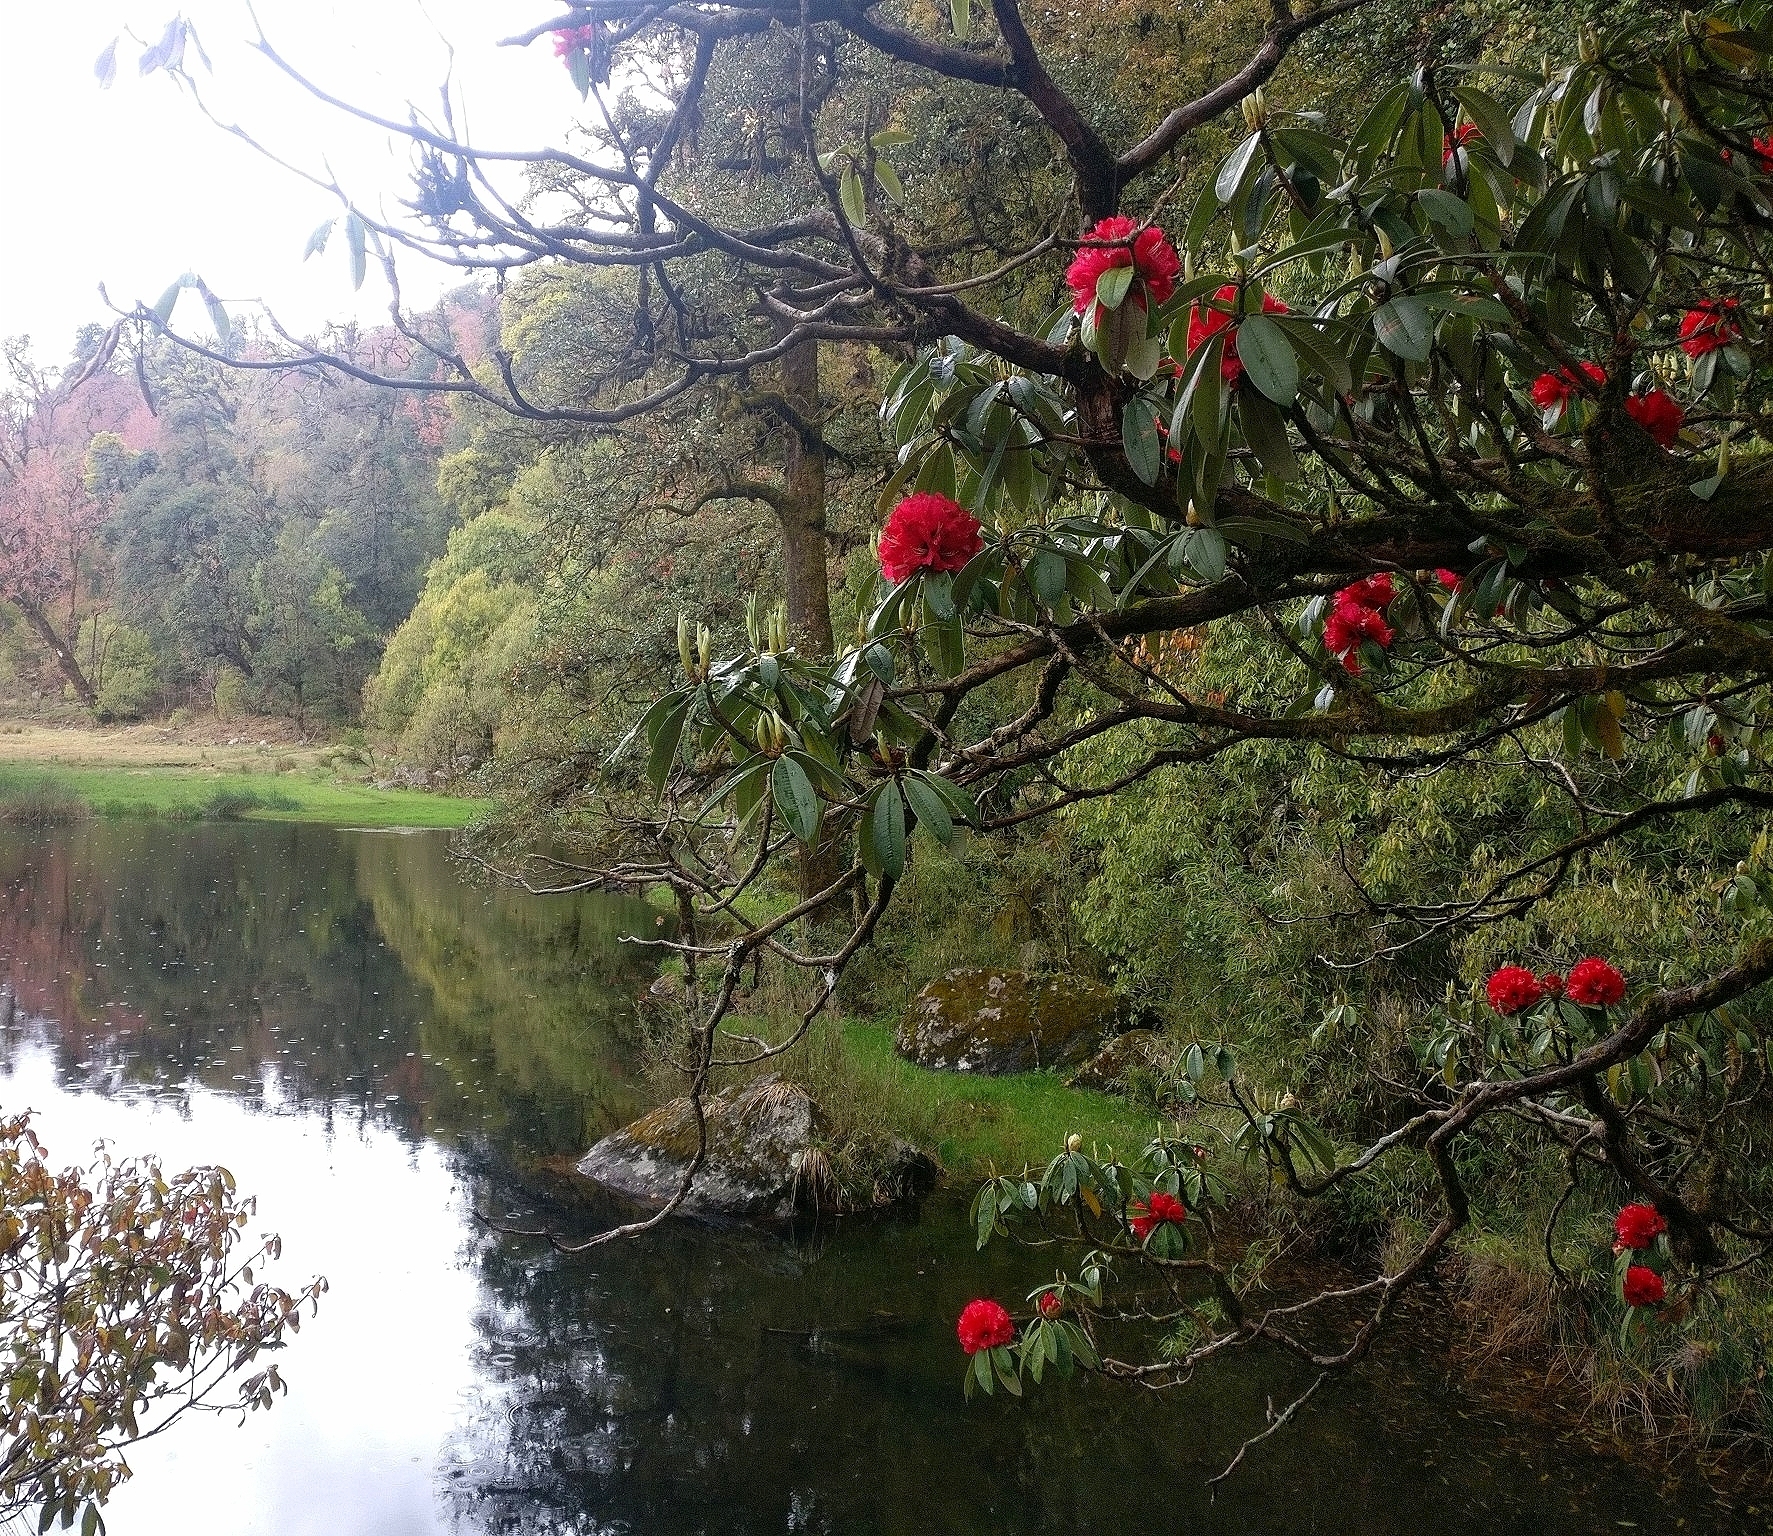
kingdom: Plantae
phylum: Tracheophyta
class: Magnoliopsida
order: Ericales
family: Ericaceae
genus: Rhododendron
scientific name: Rhododendron arboreum
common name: Tree rhododendron
